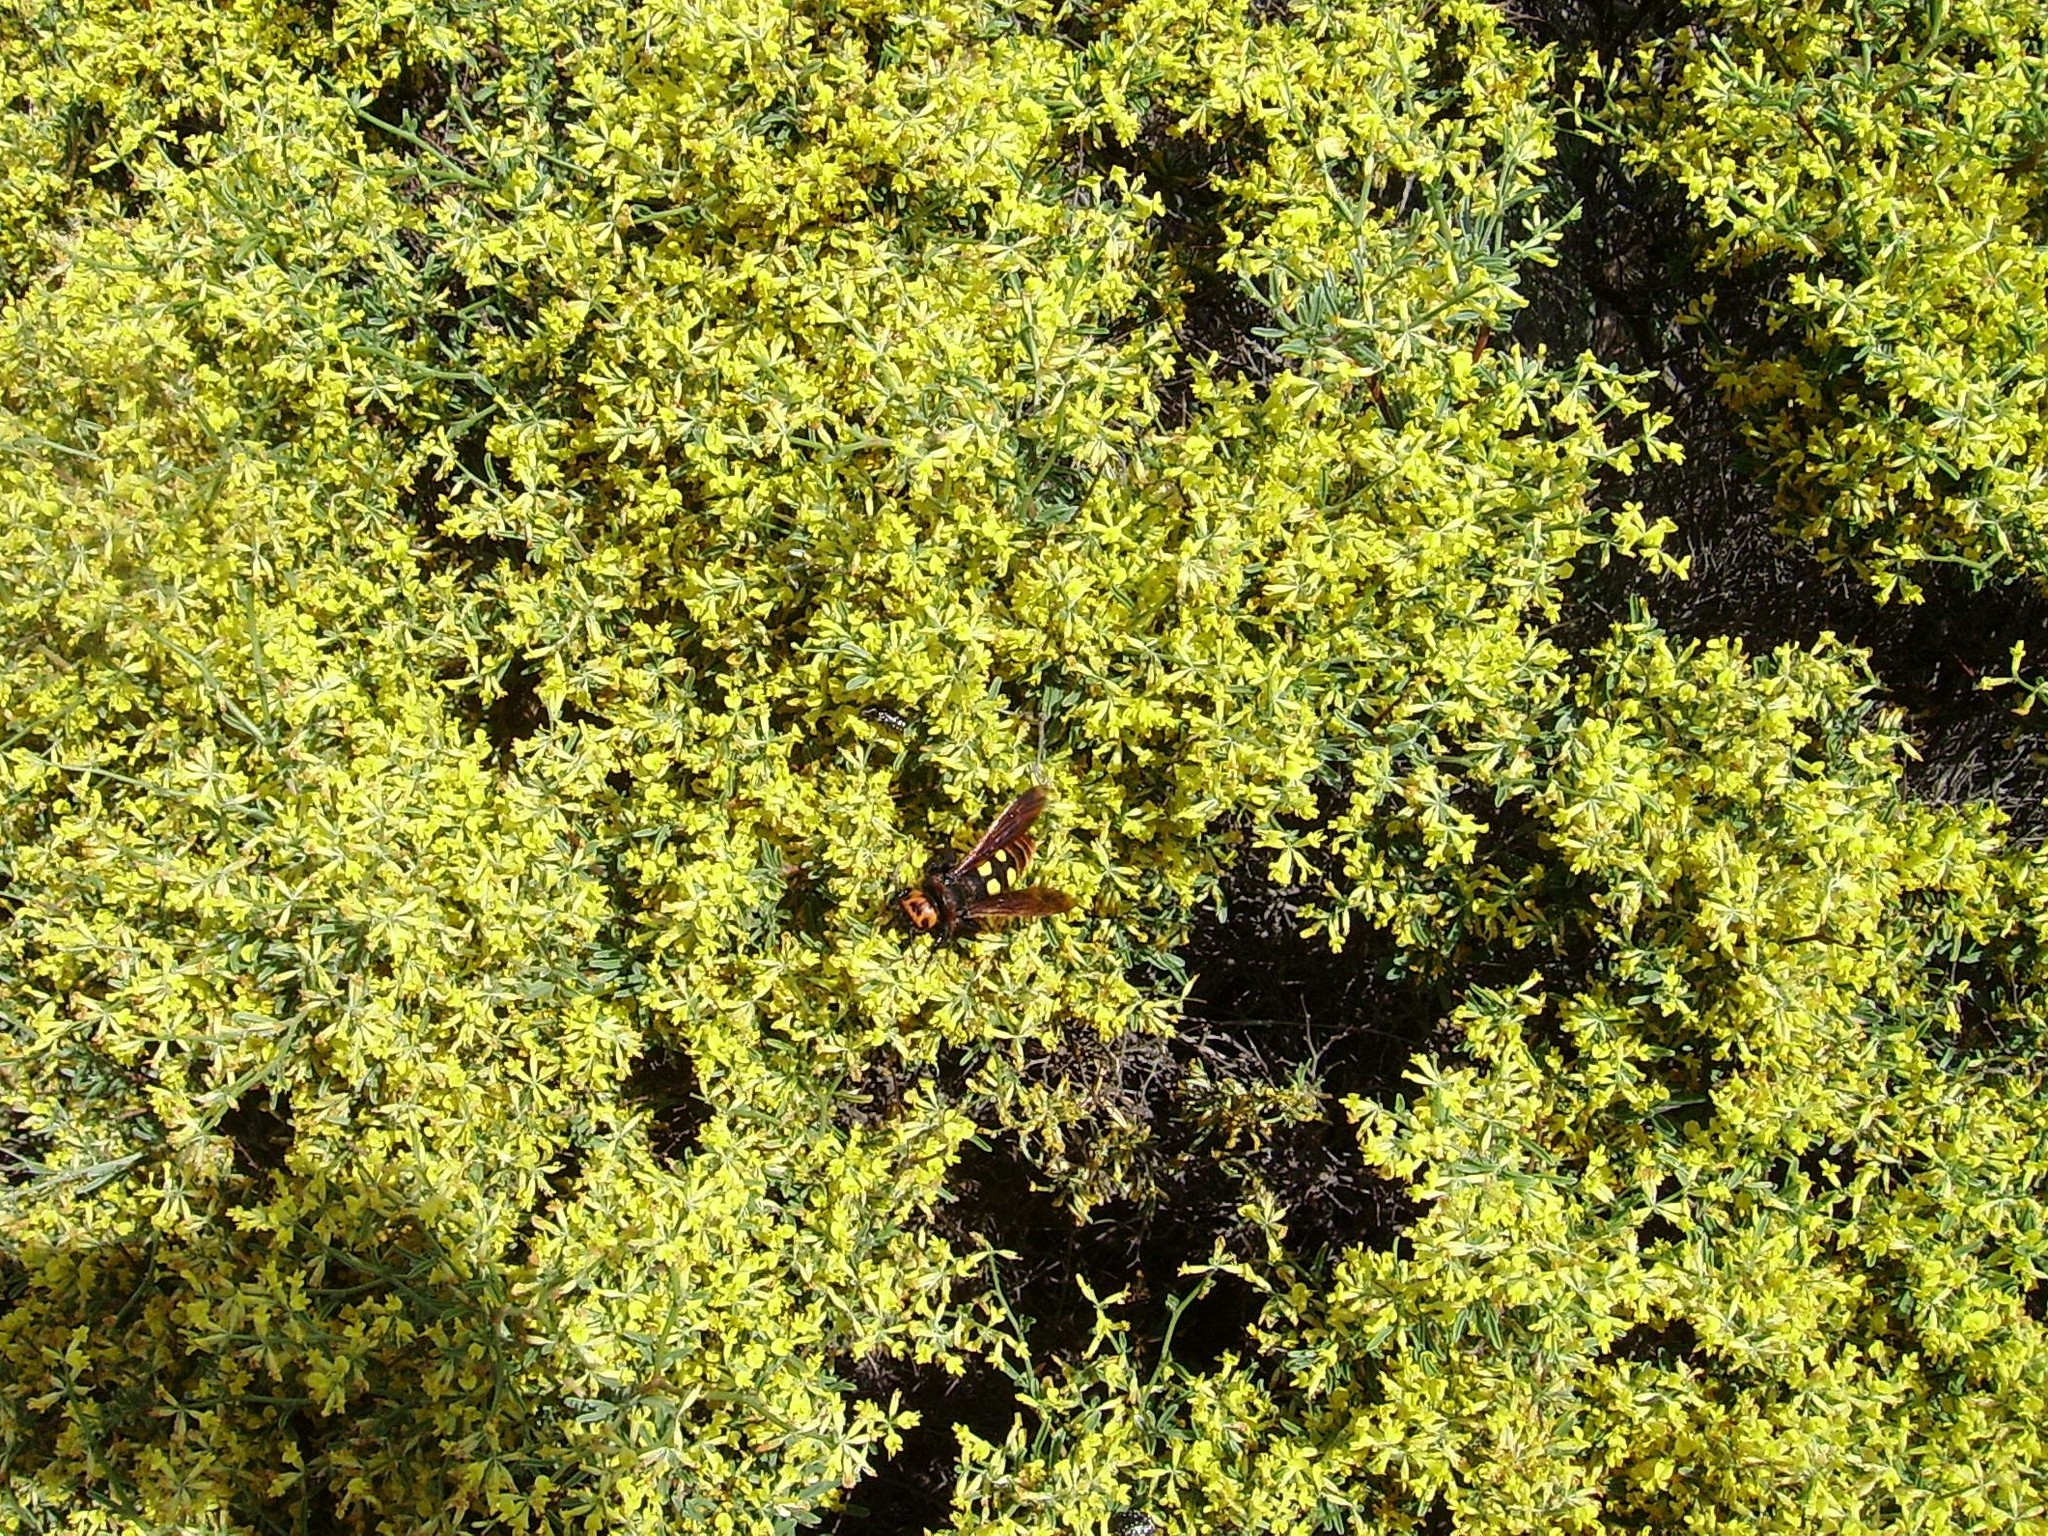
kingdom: Animalia
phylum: Arthropoda
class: Insecta
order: Hymenoptera
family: Scoliidae
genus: Megascolia
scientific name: Megascolia maculata
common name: Mammoth wasp
